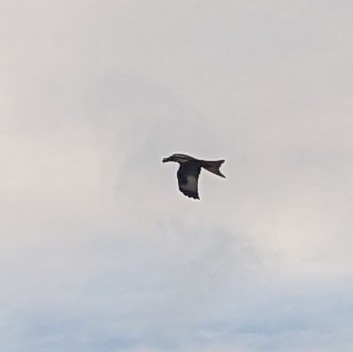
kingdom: Animalia
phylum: Chordata
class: Aves
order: Accipitriformes
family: Accipitridae
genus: Milvus
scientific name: Milvus milvus
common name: Red kite
